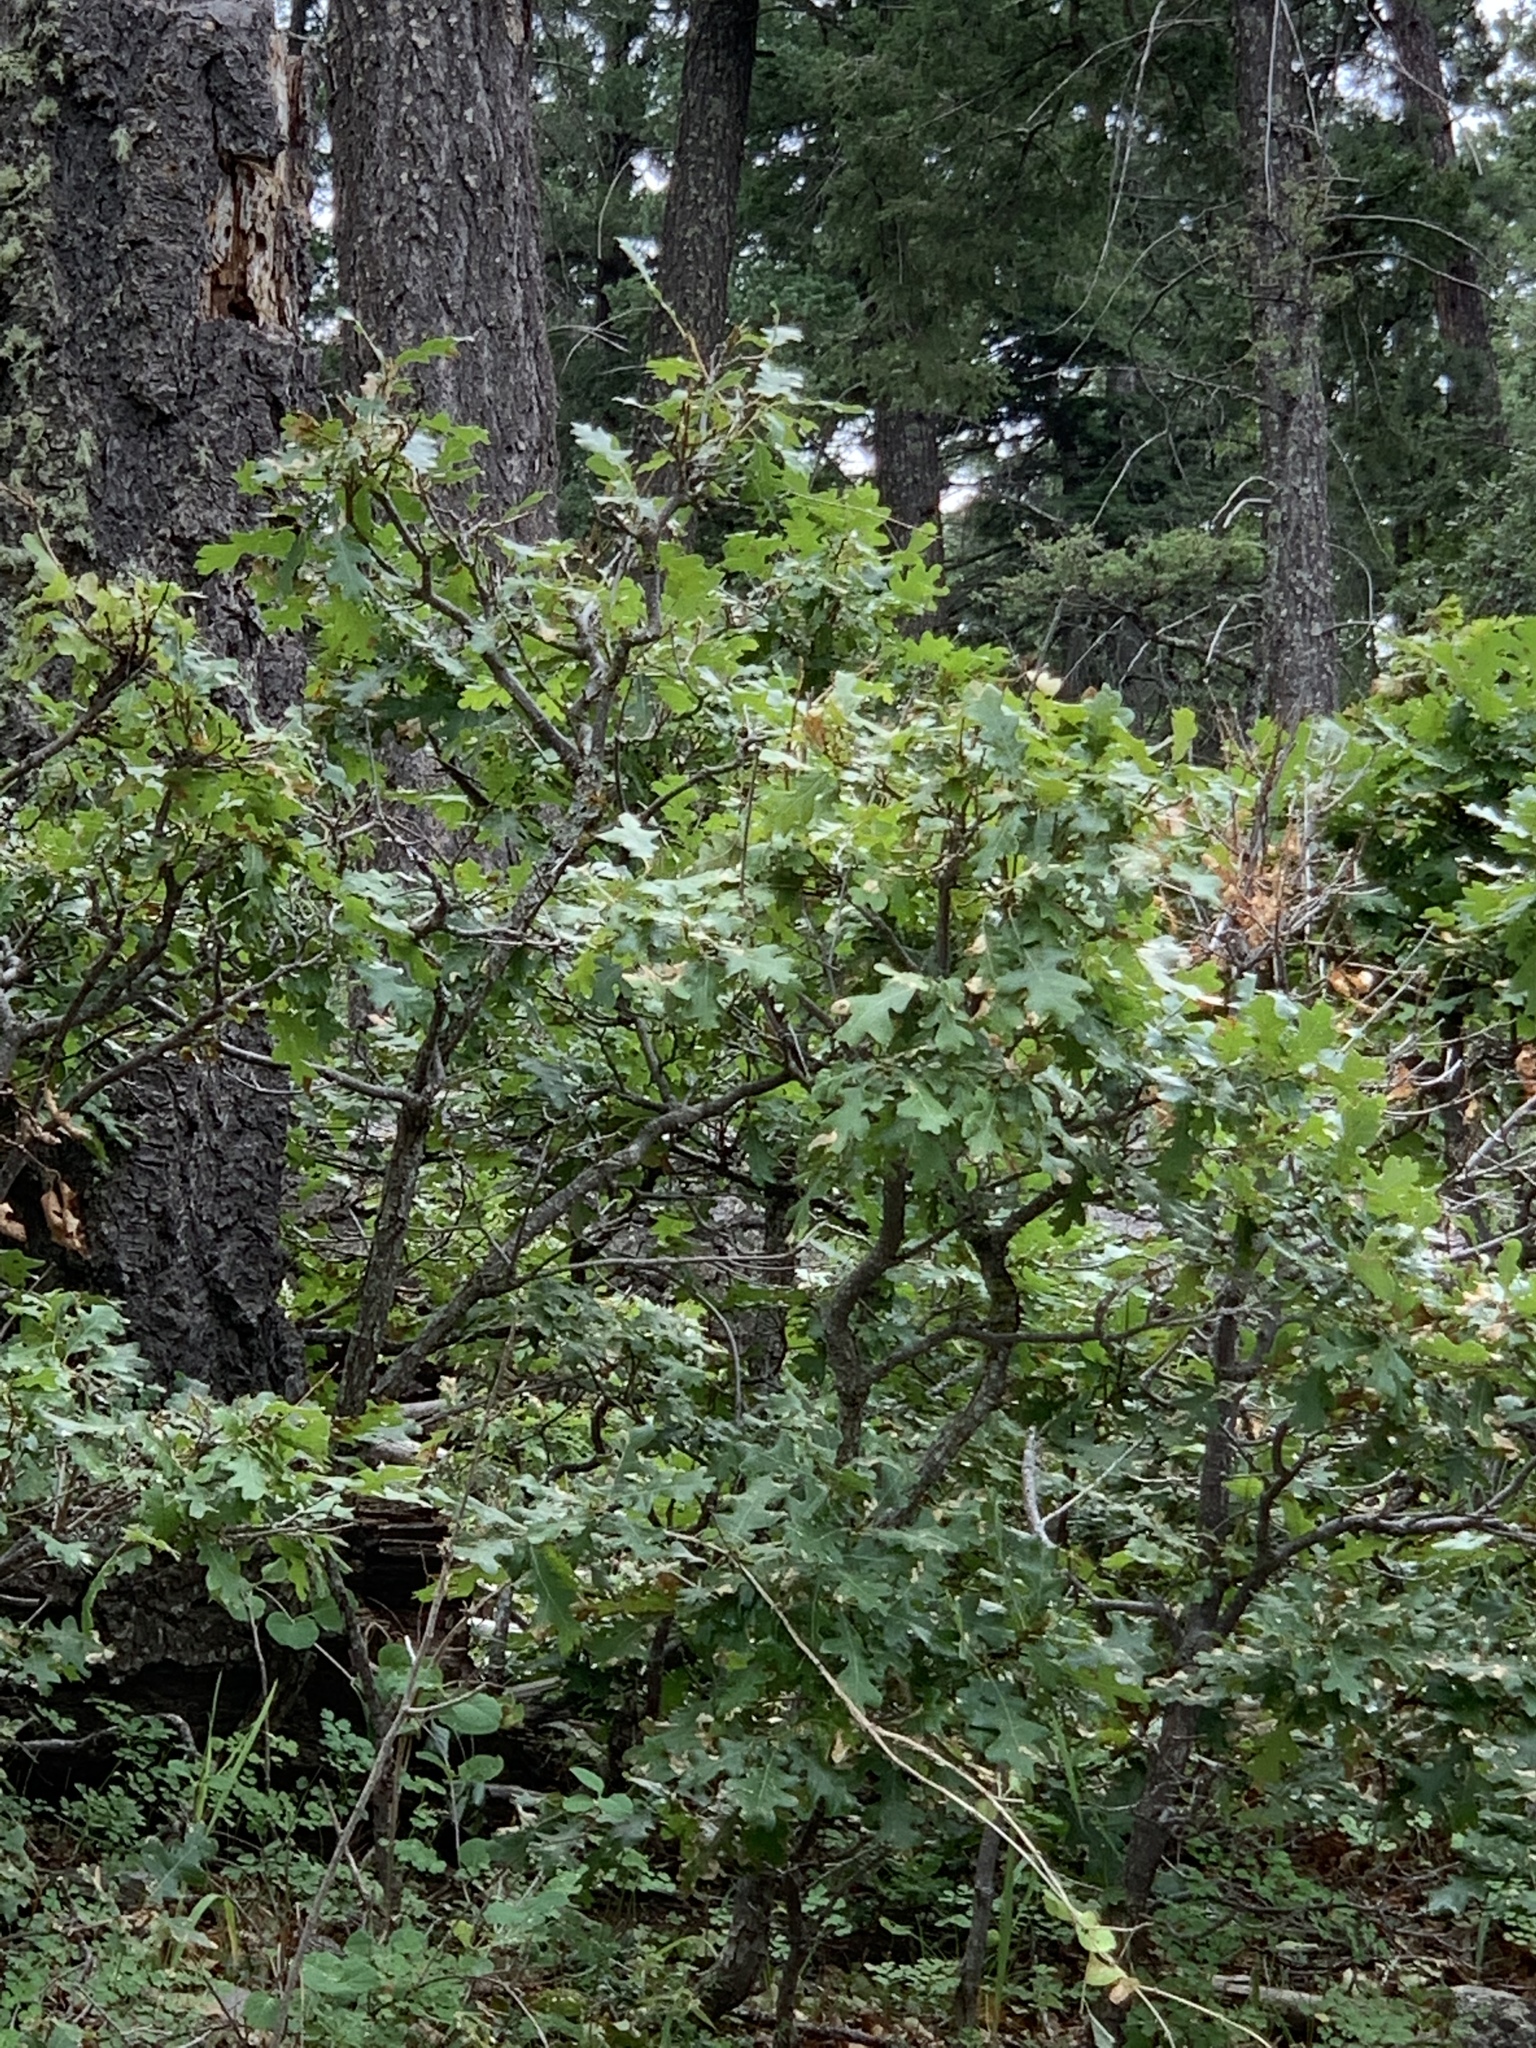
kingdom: Plantae
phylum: Tracheophyta
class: Magnoliopsida
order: Fagales
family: Fagaceae
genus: Quercus
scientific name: Quercus gambelii
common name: Gambel oak
